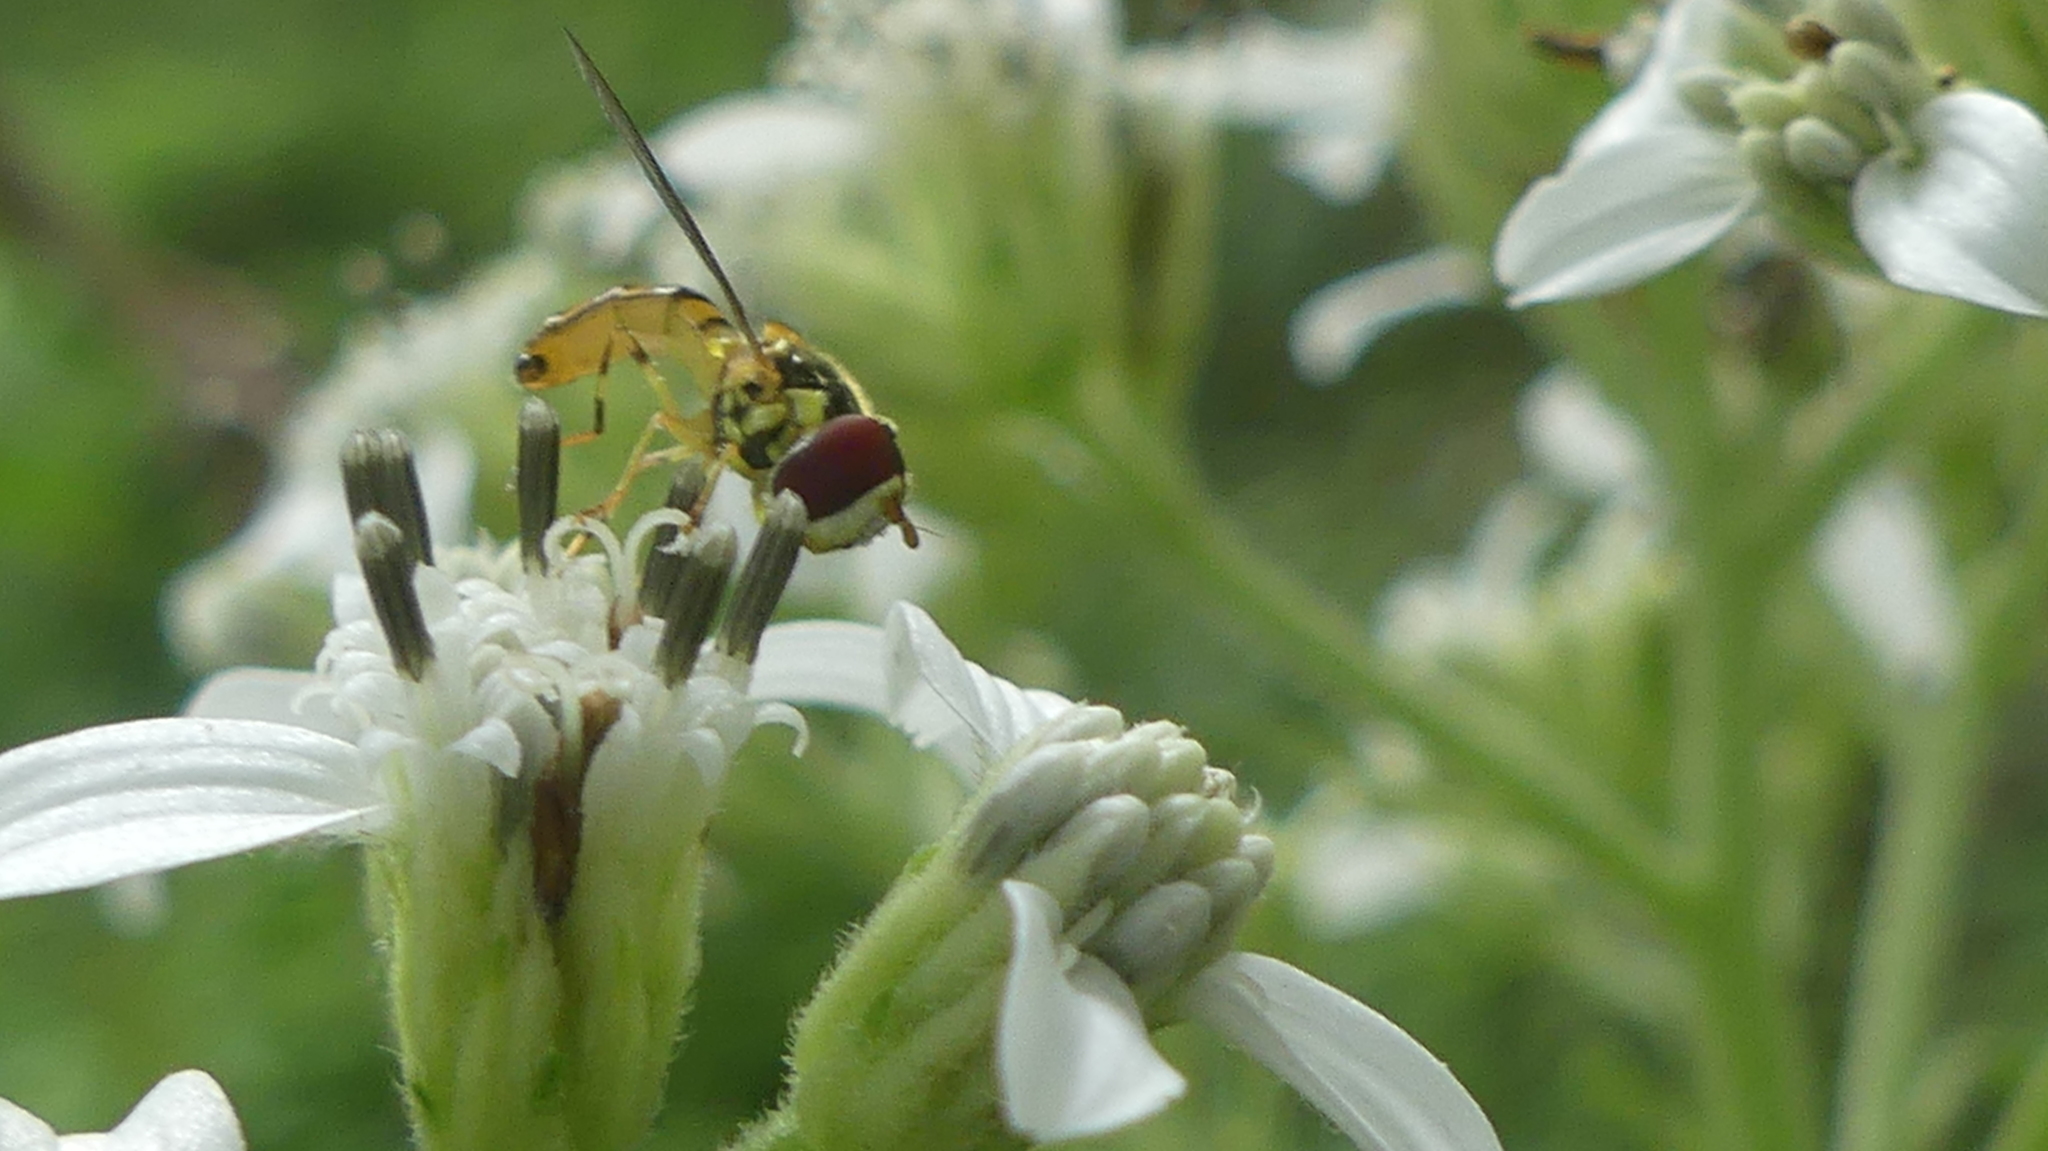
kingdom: Animalia
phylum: Arthropoda
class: Insecta
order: Diptera
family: Syrphidae
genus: Allograpta
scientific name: Allograpta obliqua
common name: Common oblique syrphid
